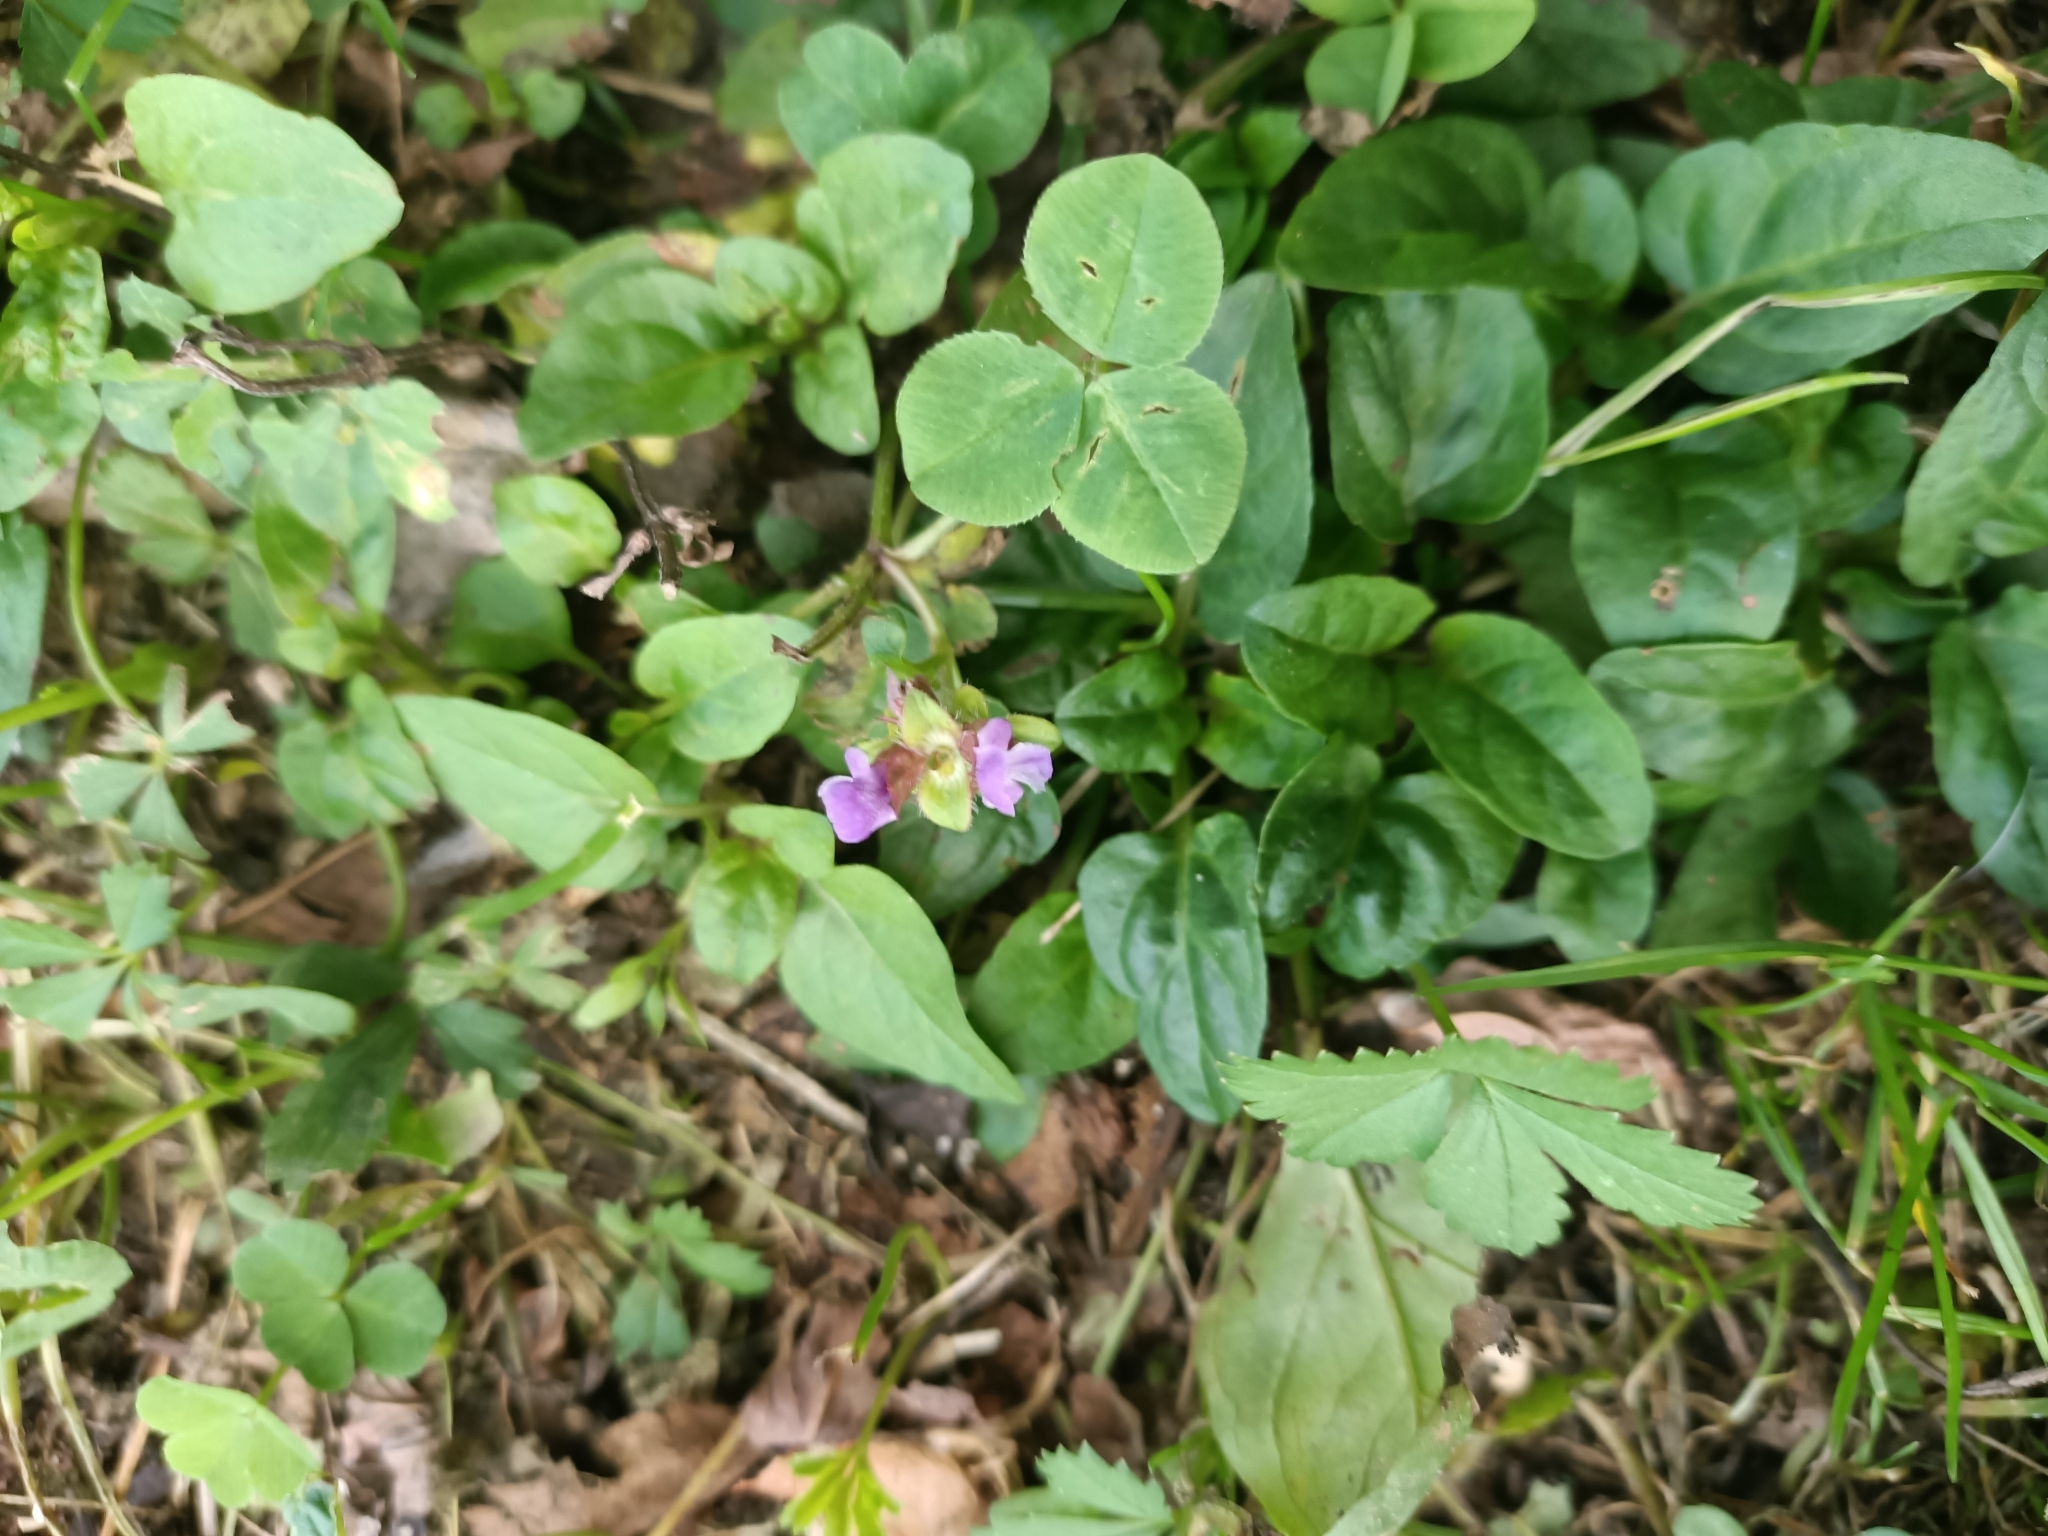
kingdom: Plantae
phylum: Tracheophyta
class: Magnoliopsida
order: Lamiales
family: Lamiaceae
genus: Prunella
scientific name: Prunella vulgaris
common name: Heal-all
